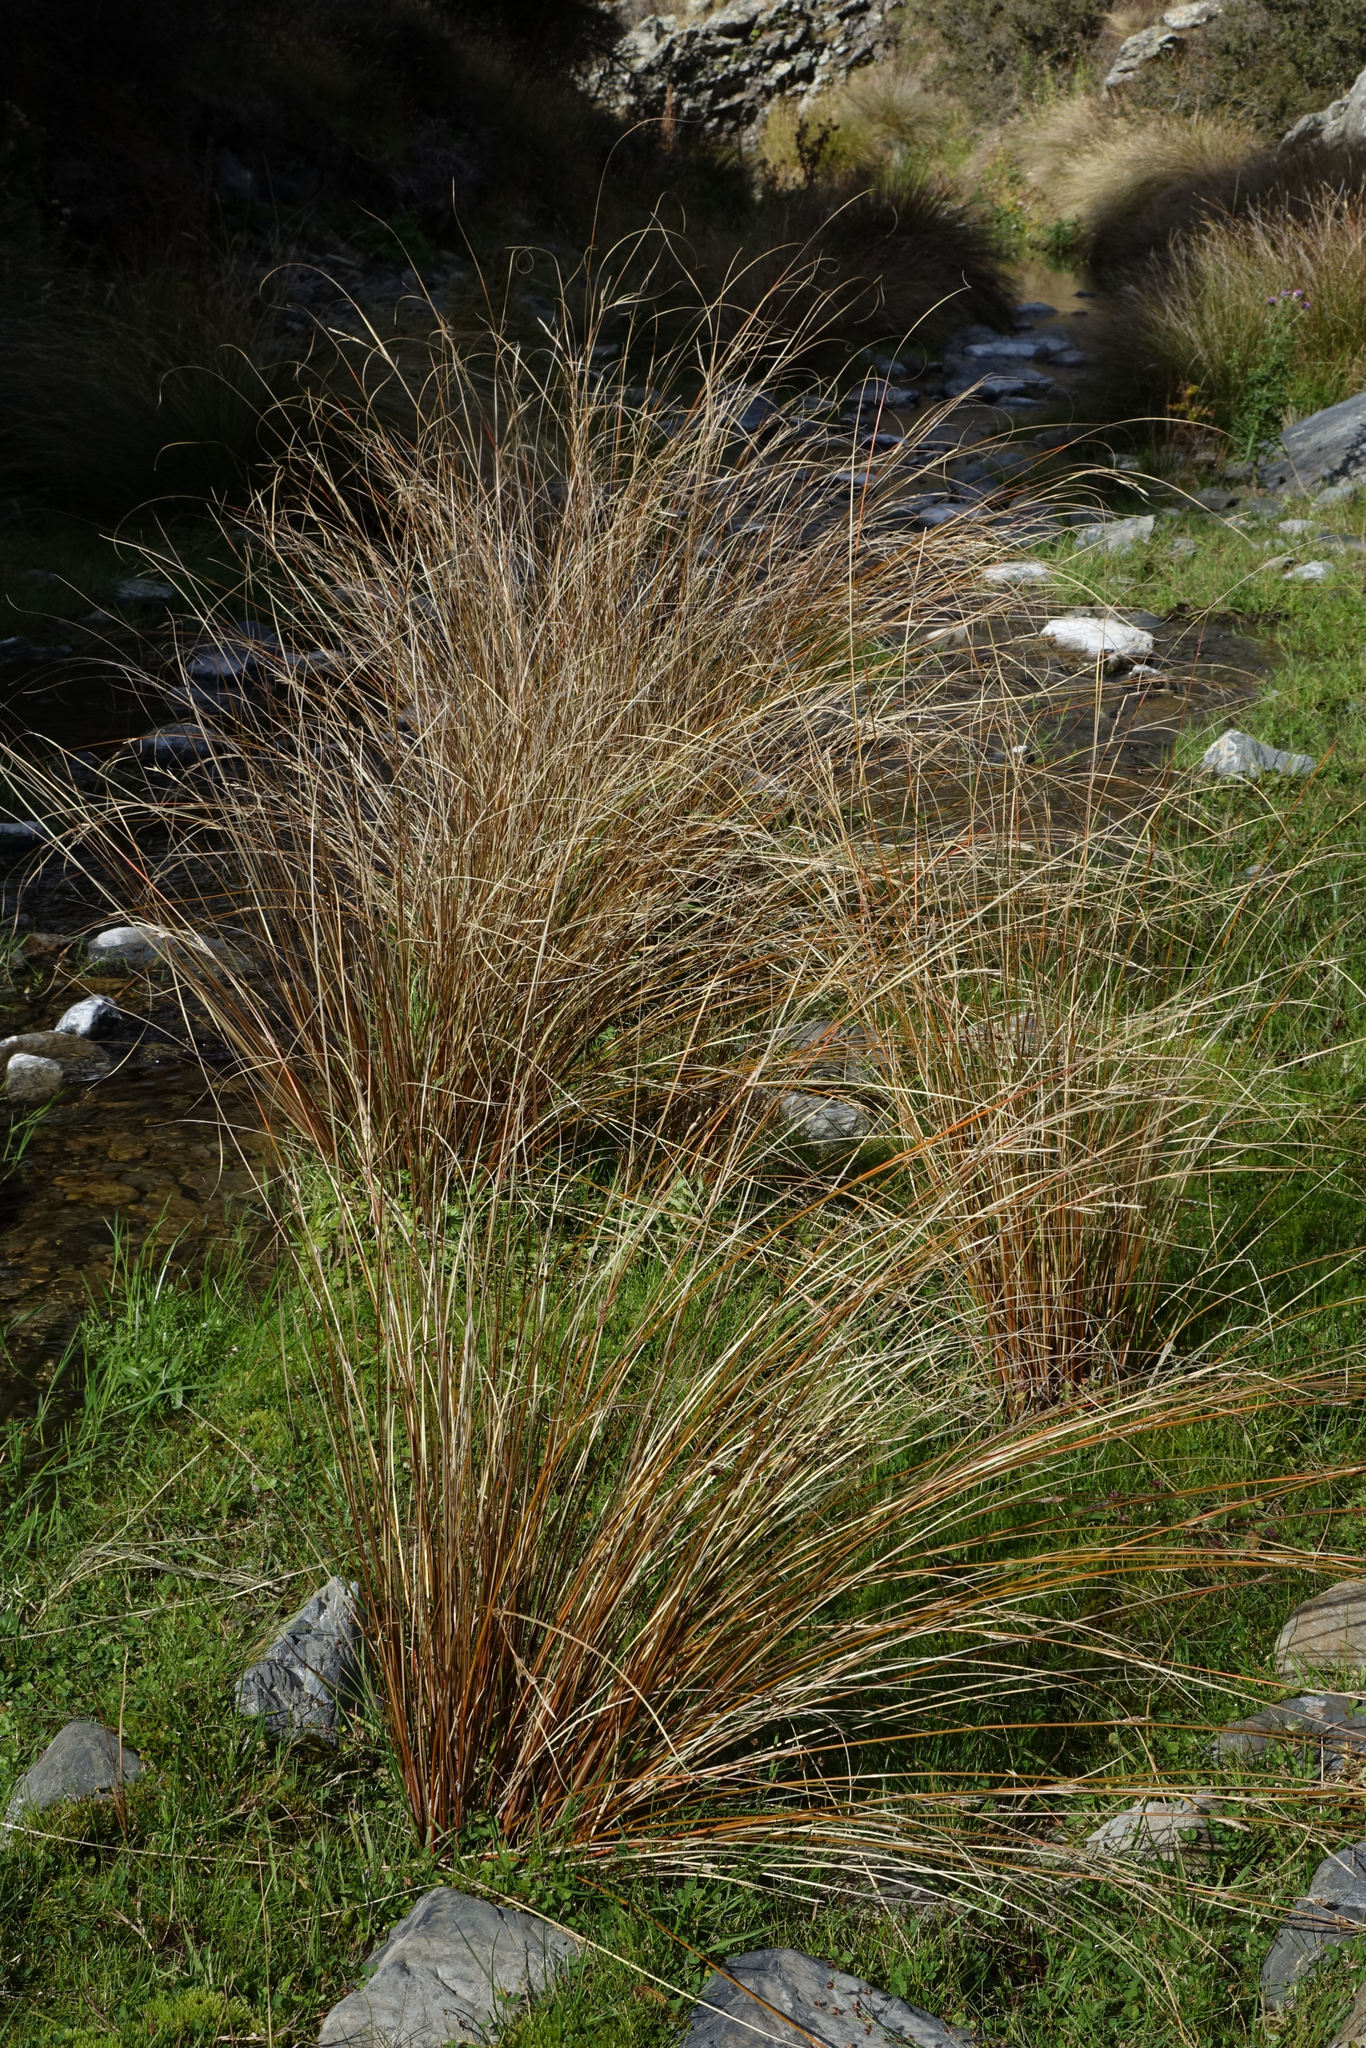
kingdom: Plantae
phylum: Tracheophyta
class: Liliopsida
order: Poales
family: Cyperaceae
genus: Carex
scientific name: Carex buchananii
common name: Leatherleaf sedge
